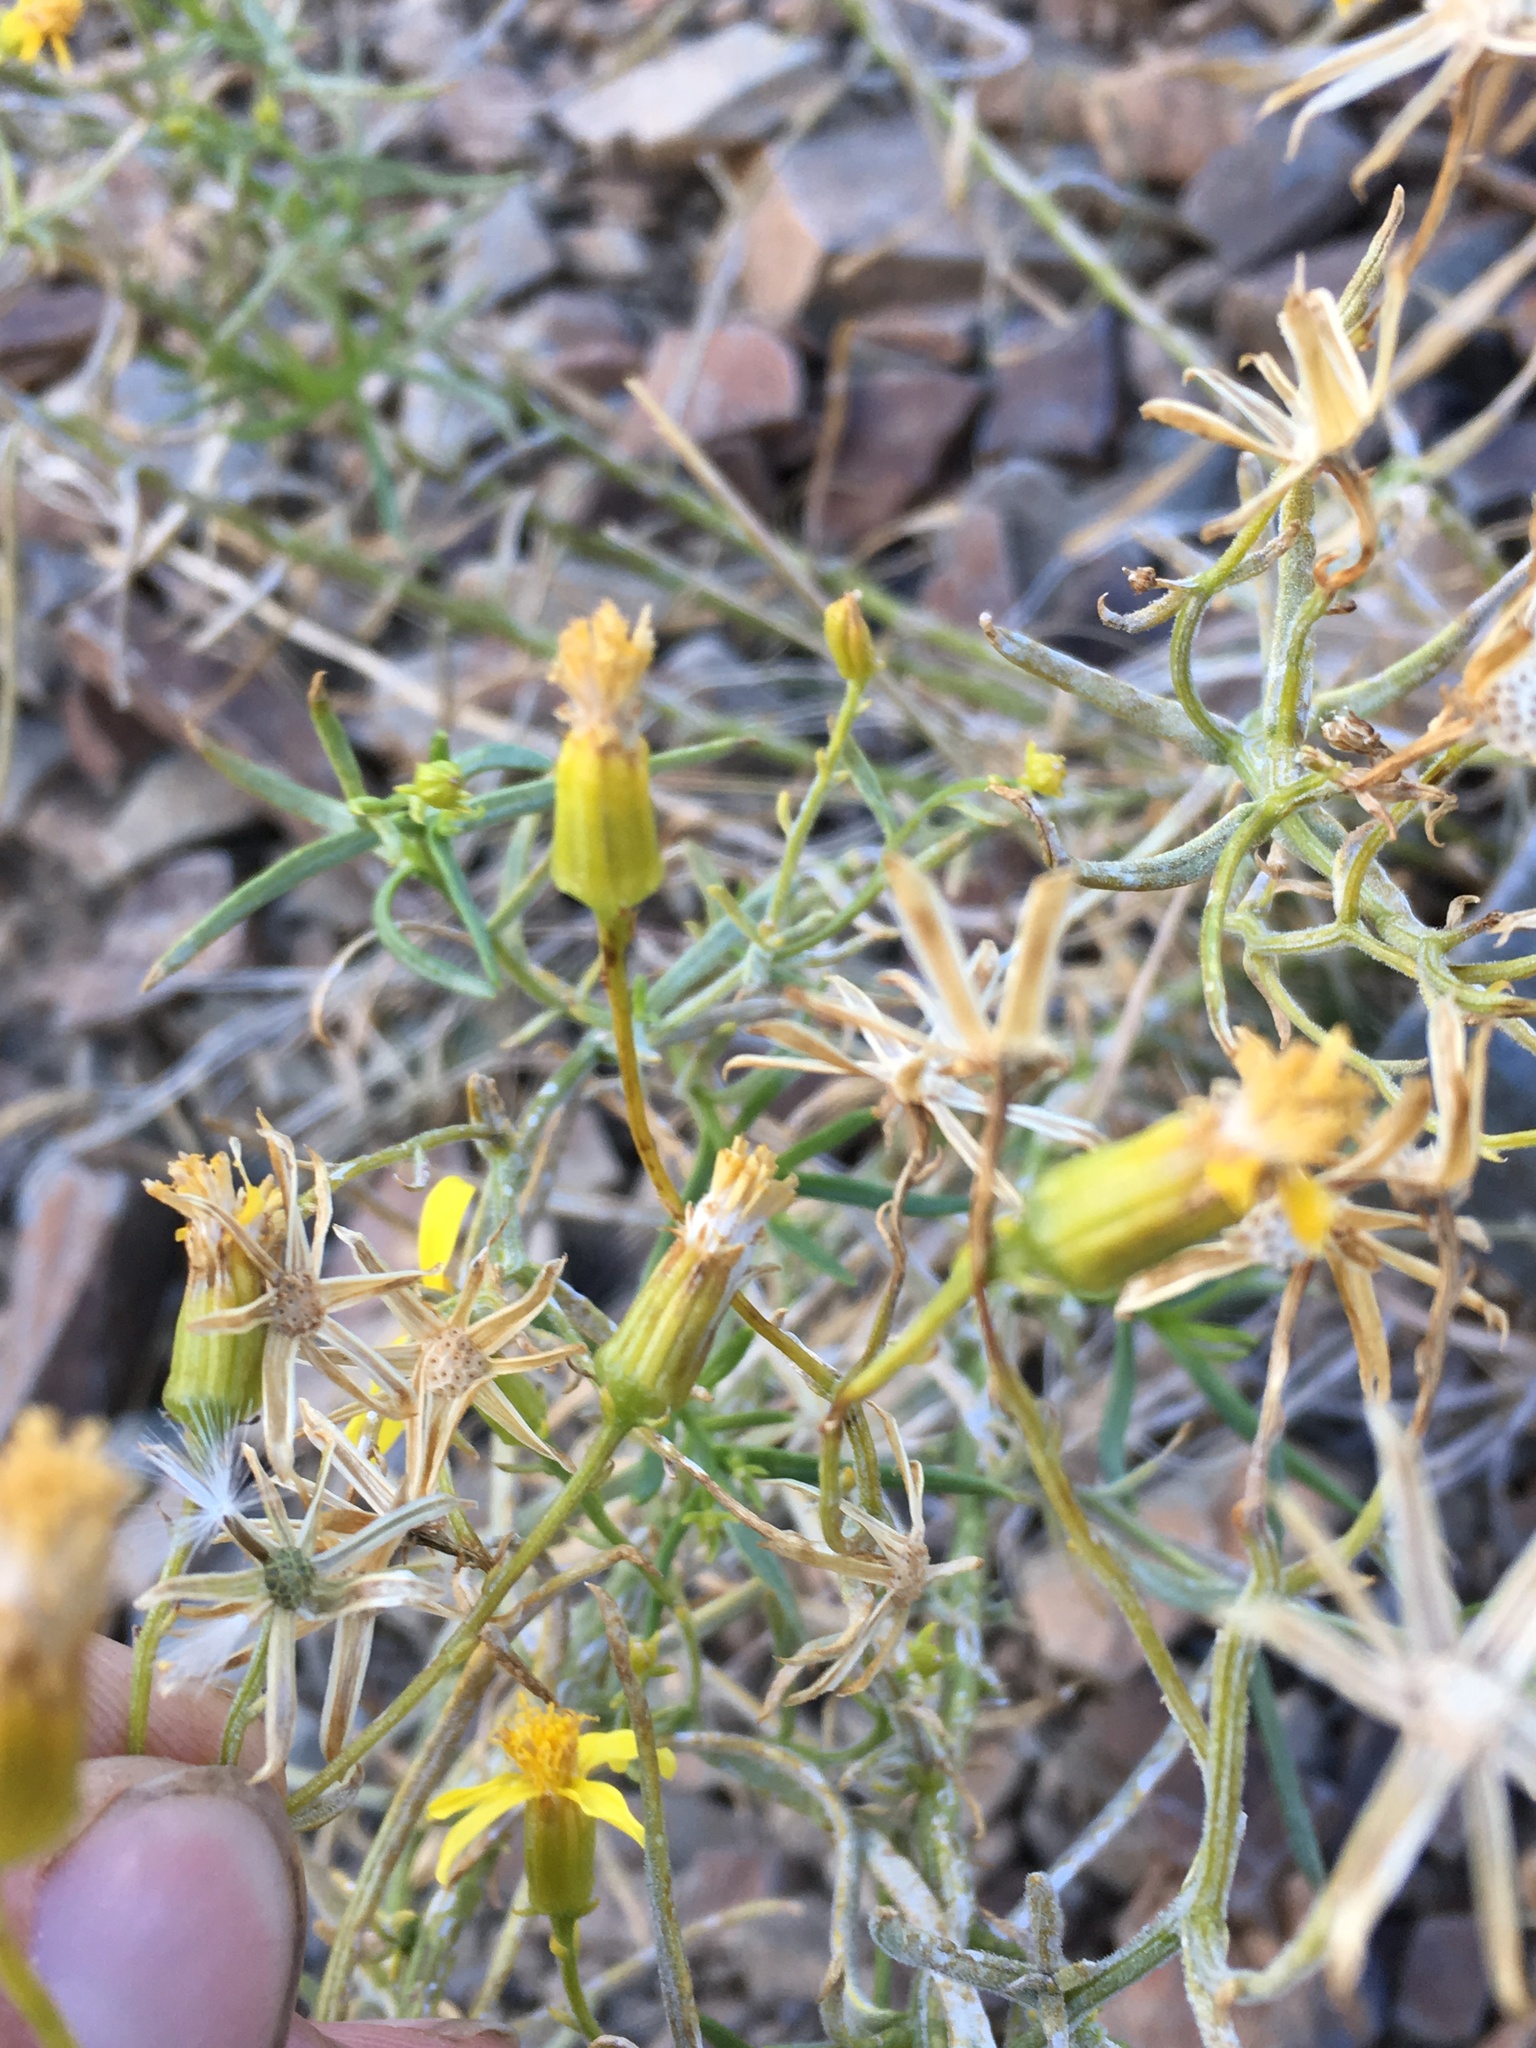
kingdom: Plantae
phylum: Tracheophyta
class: Magnoliopsida
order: Asterales
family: Asteraceae
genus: Senecio
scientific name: Senecio flaccidus
